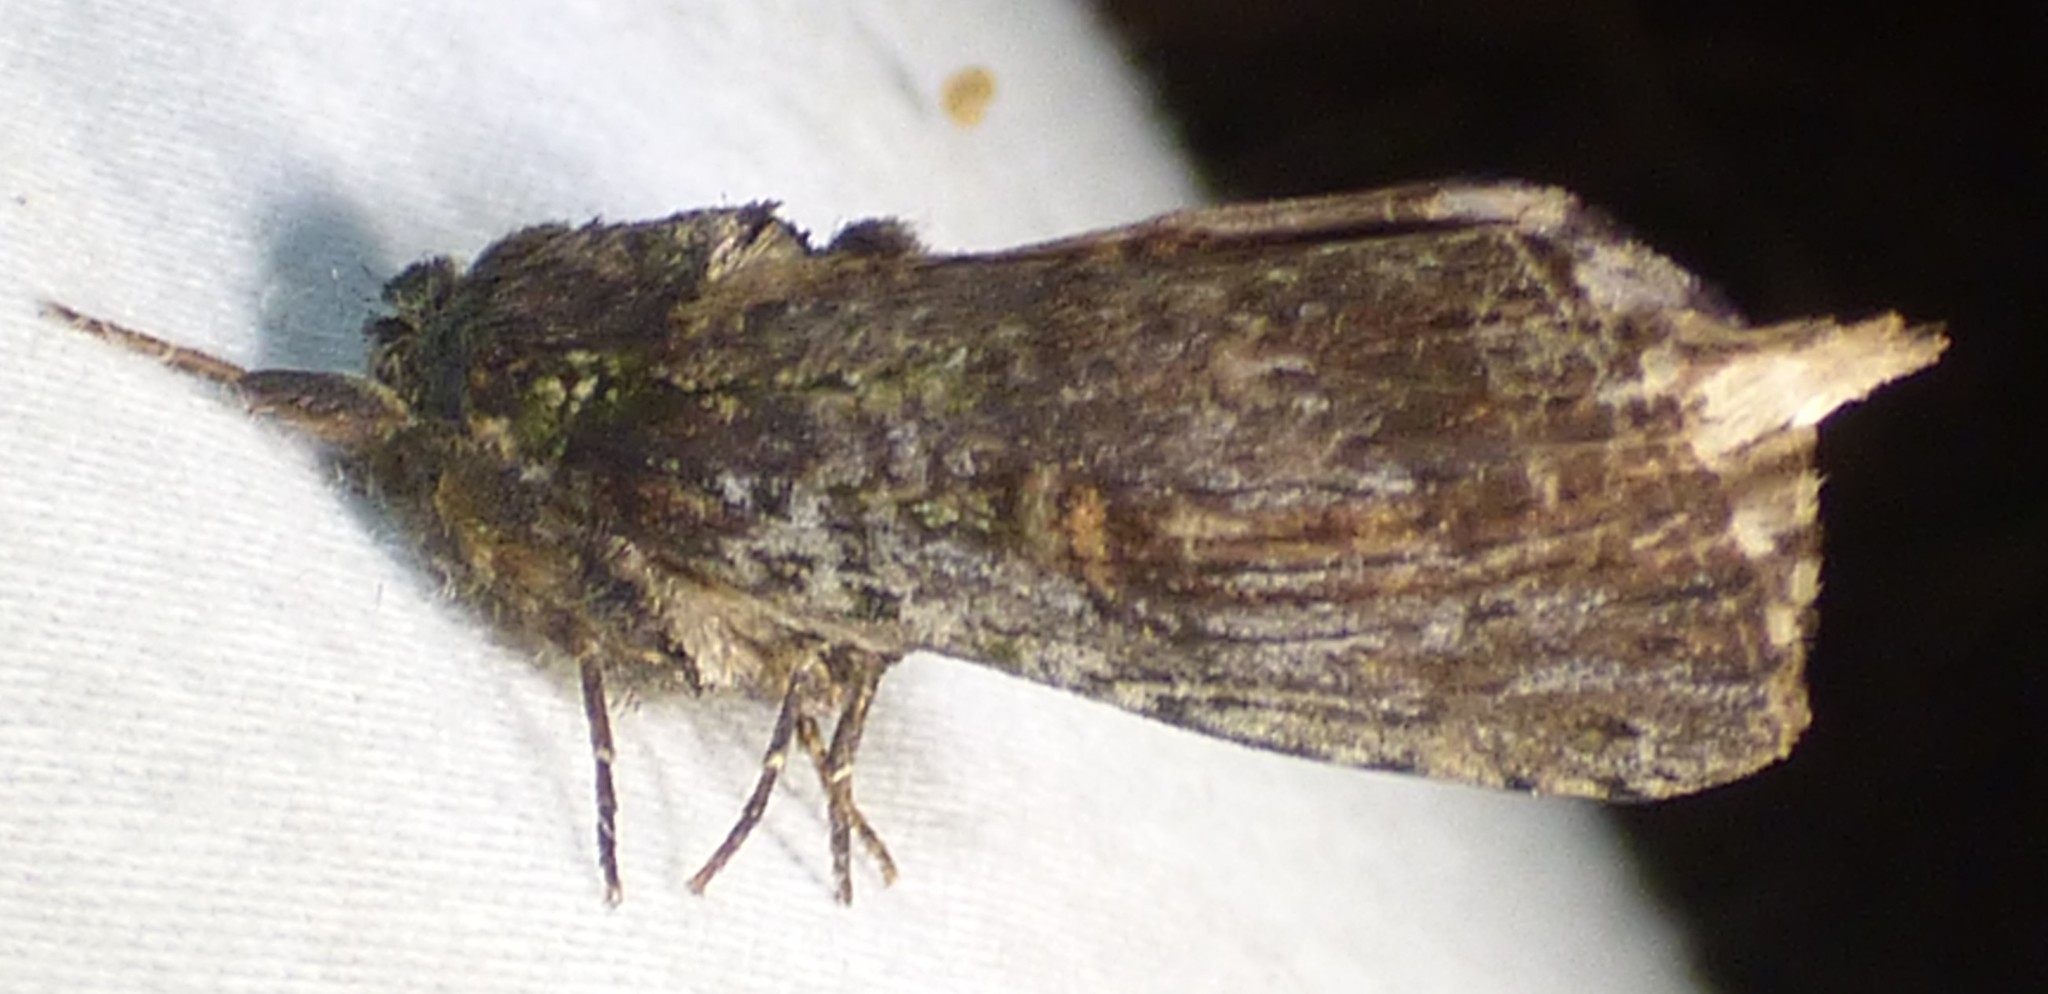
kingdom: Animalia
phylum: Arthropoda
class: Insecta
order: Lepidoptera
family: Notodontidae
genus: Schizura
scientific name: Schizura ipomaeae
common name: Morning-glory prominent
